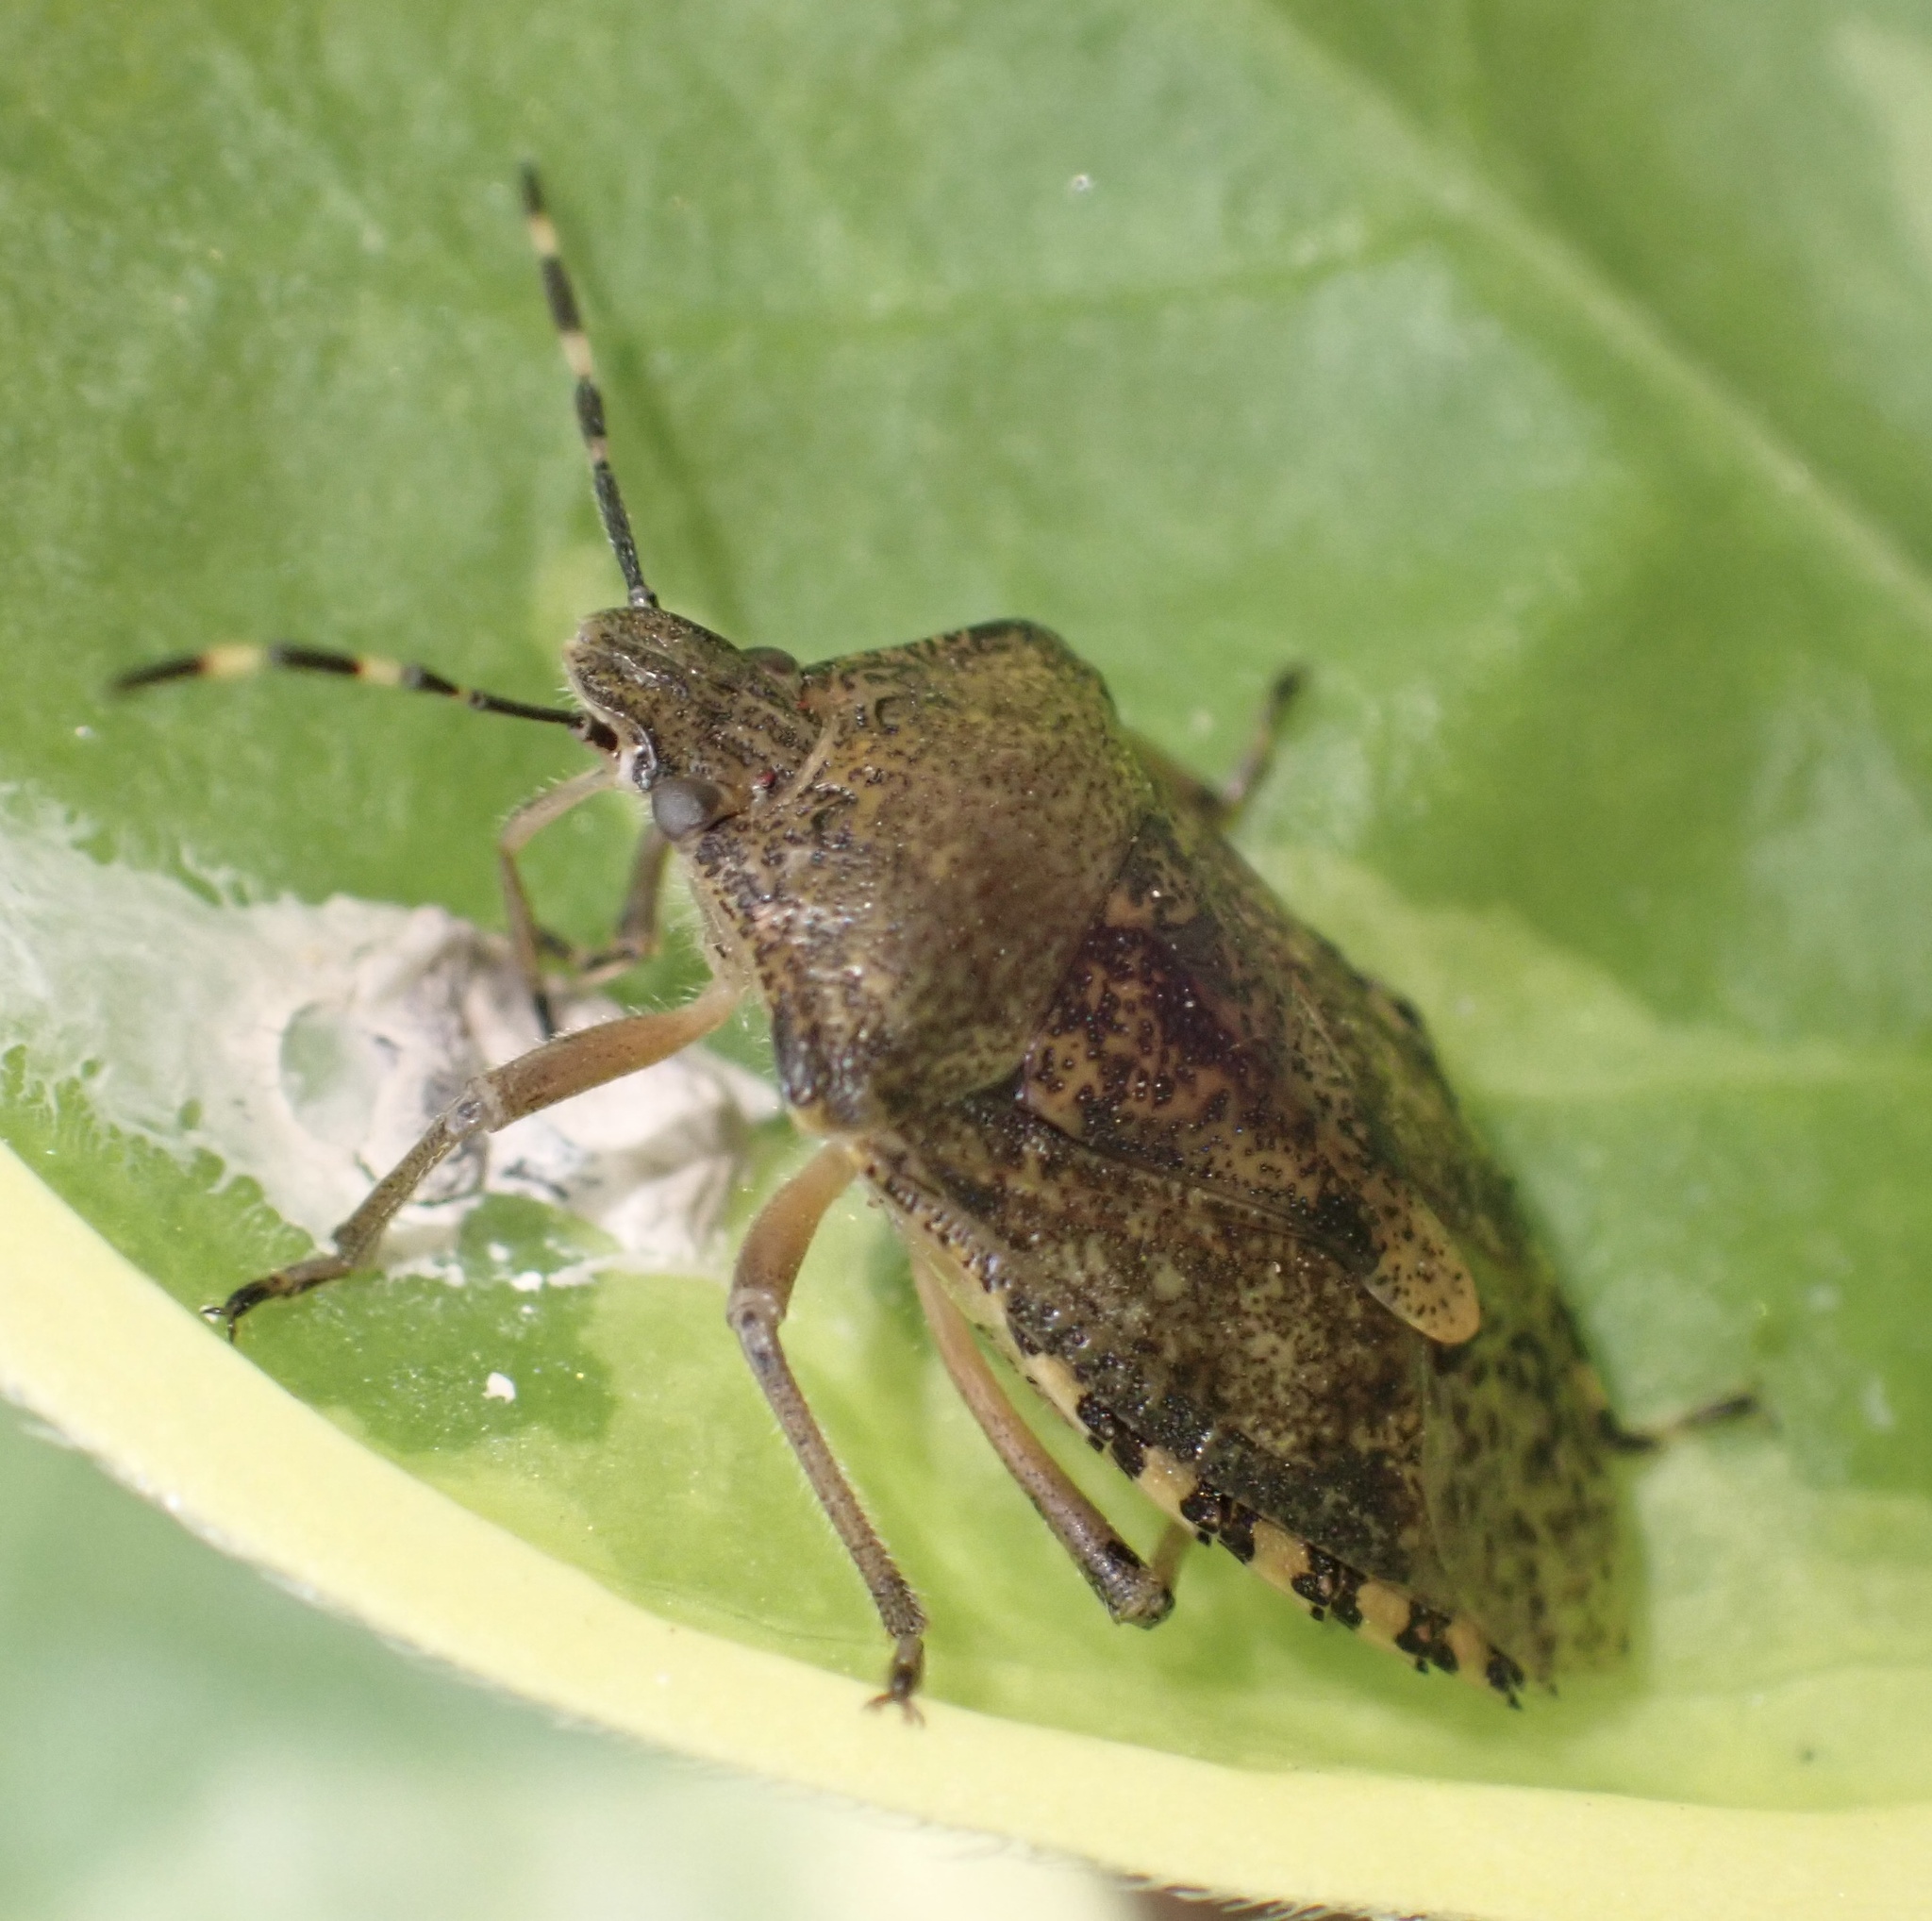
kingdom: Animalia
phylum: Arthropoda
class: Insecta
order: Hemiptera
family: Pentatomidae
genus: Rhaphigaster
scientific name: Rhaphigaster nebulosa
